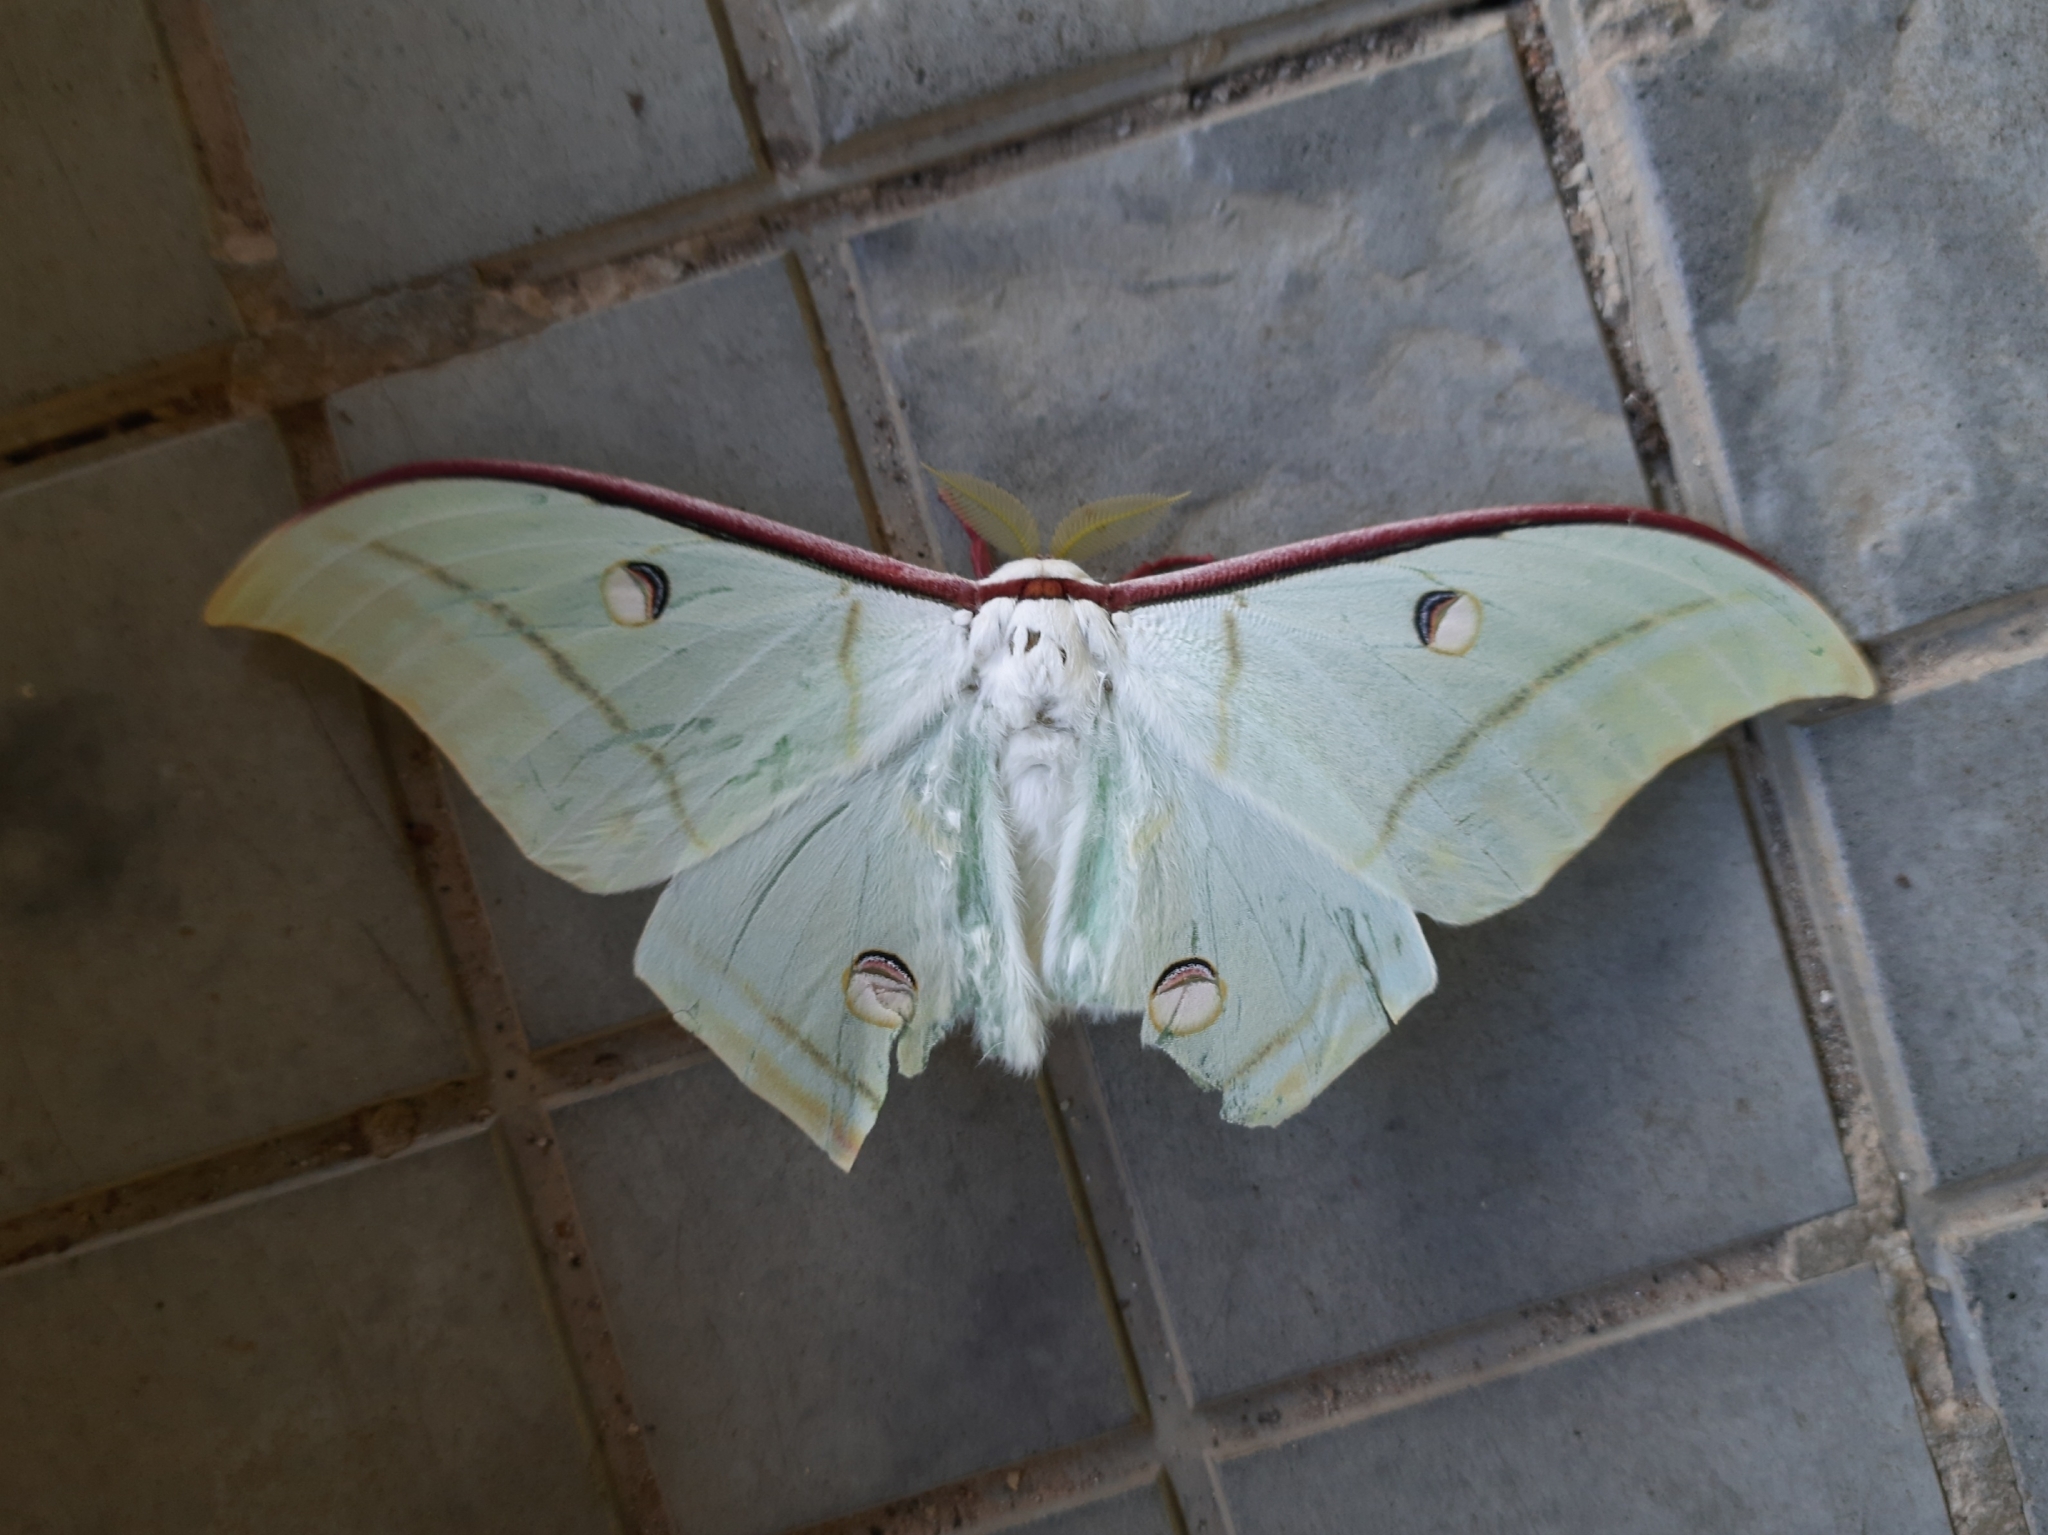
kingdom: Animalia
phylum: Arthropoda
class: Insecta
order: Lepidoptera
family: Saturniidae
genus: Actias
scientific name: Actias selene
